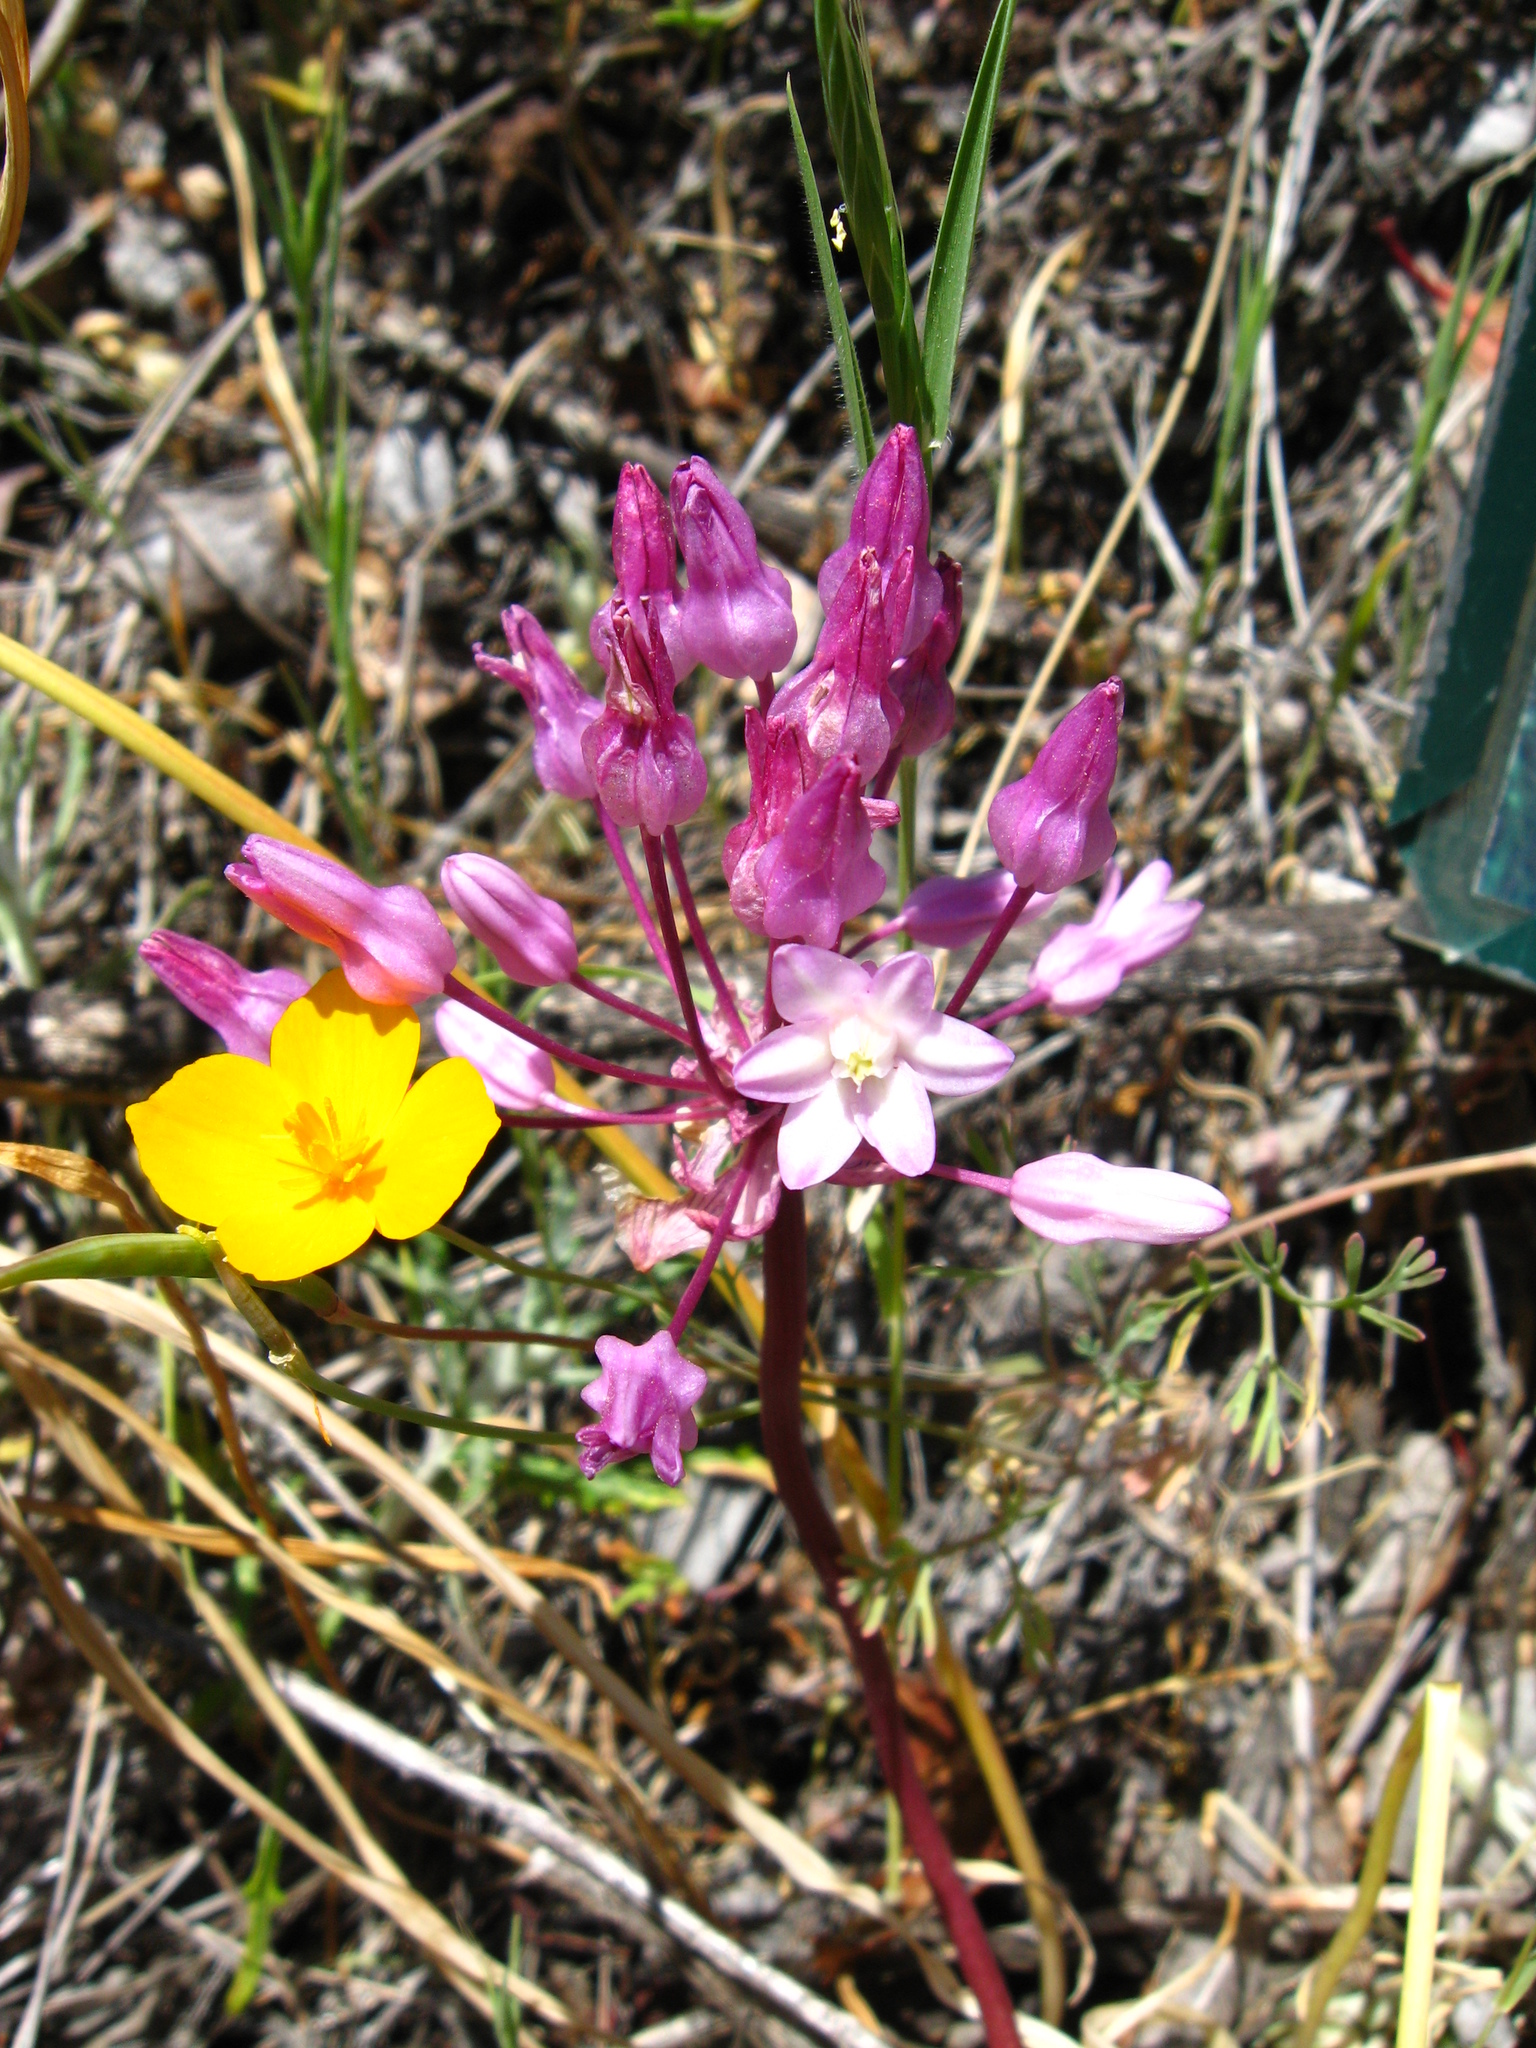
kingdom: Plantae
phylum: Tracheophyta
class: Liliopsida
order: Asparagales
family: Asparagaceae
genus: Dichelostemma
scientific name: Dichelostemma volubile
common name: Trining brodiaea
